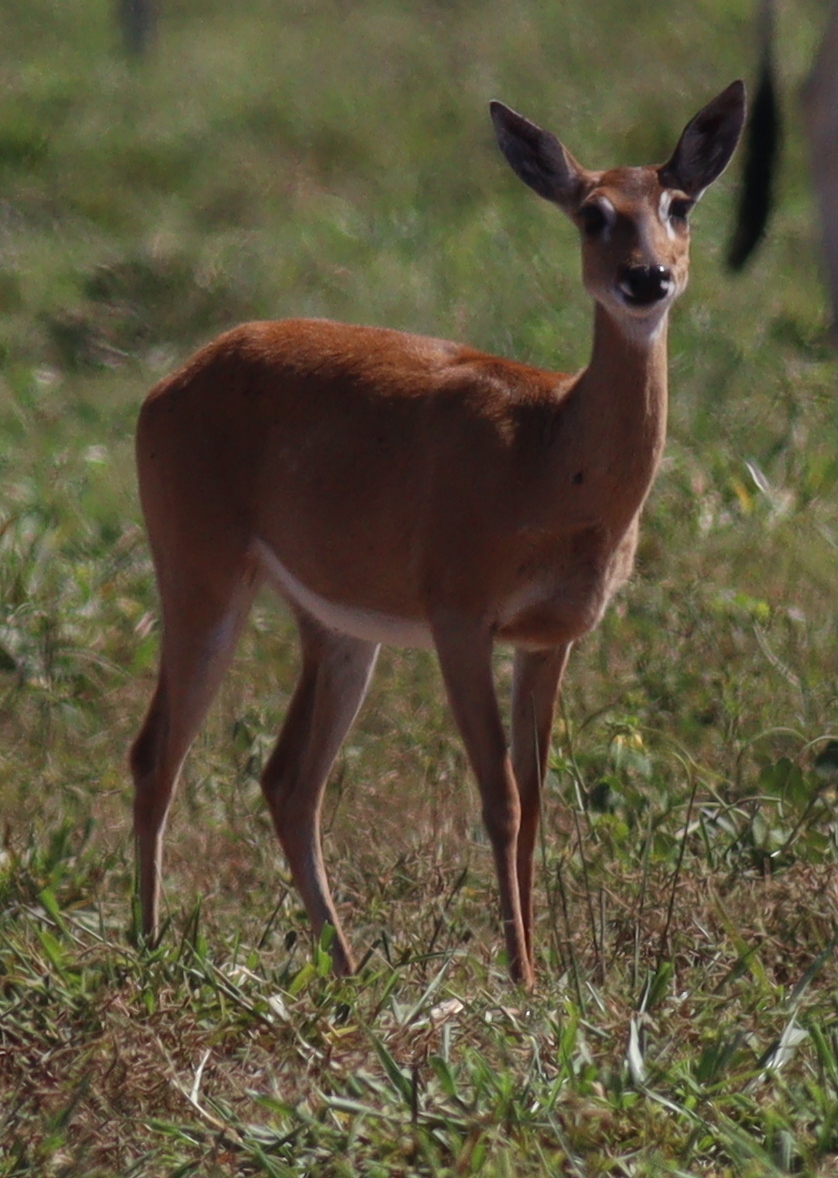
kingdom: Animalia
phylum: Chordata
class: Mammalia
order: Artiodactyla
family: Cervidae
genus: Ozotoceros
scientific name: Ozotoceros bezoarticus
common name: Pampas deer
